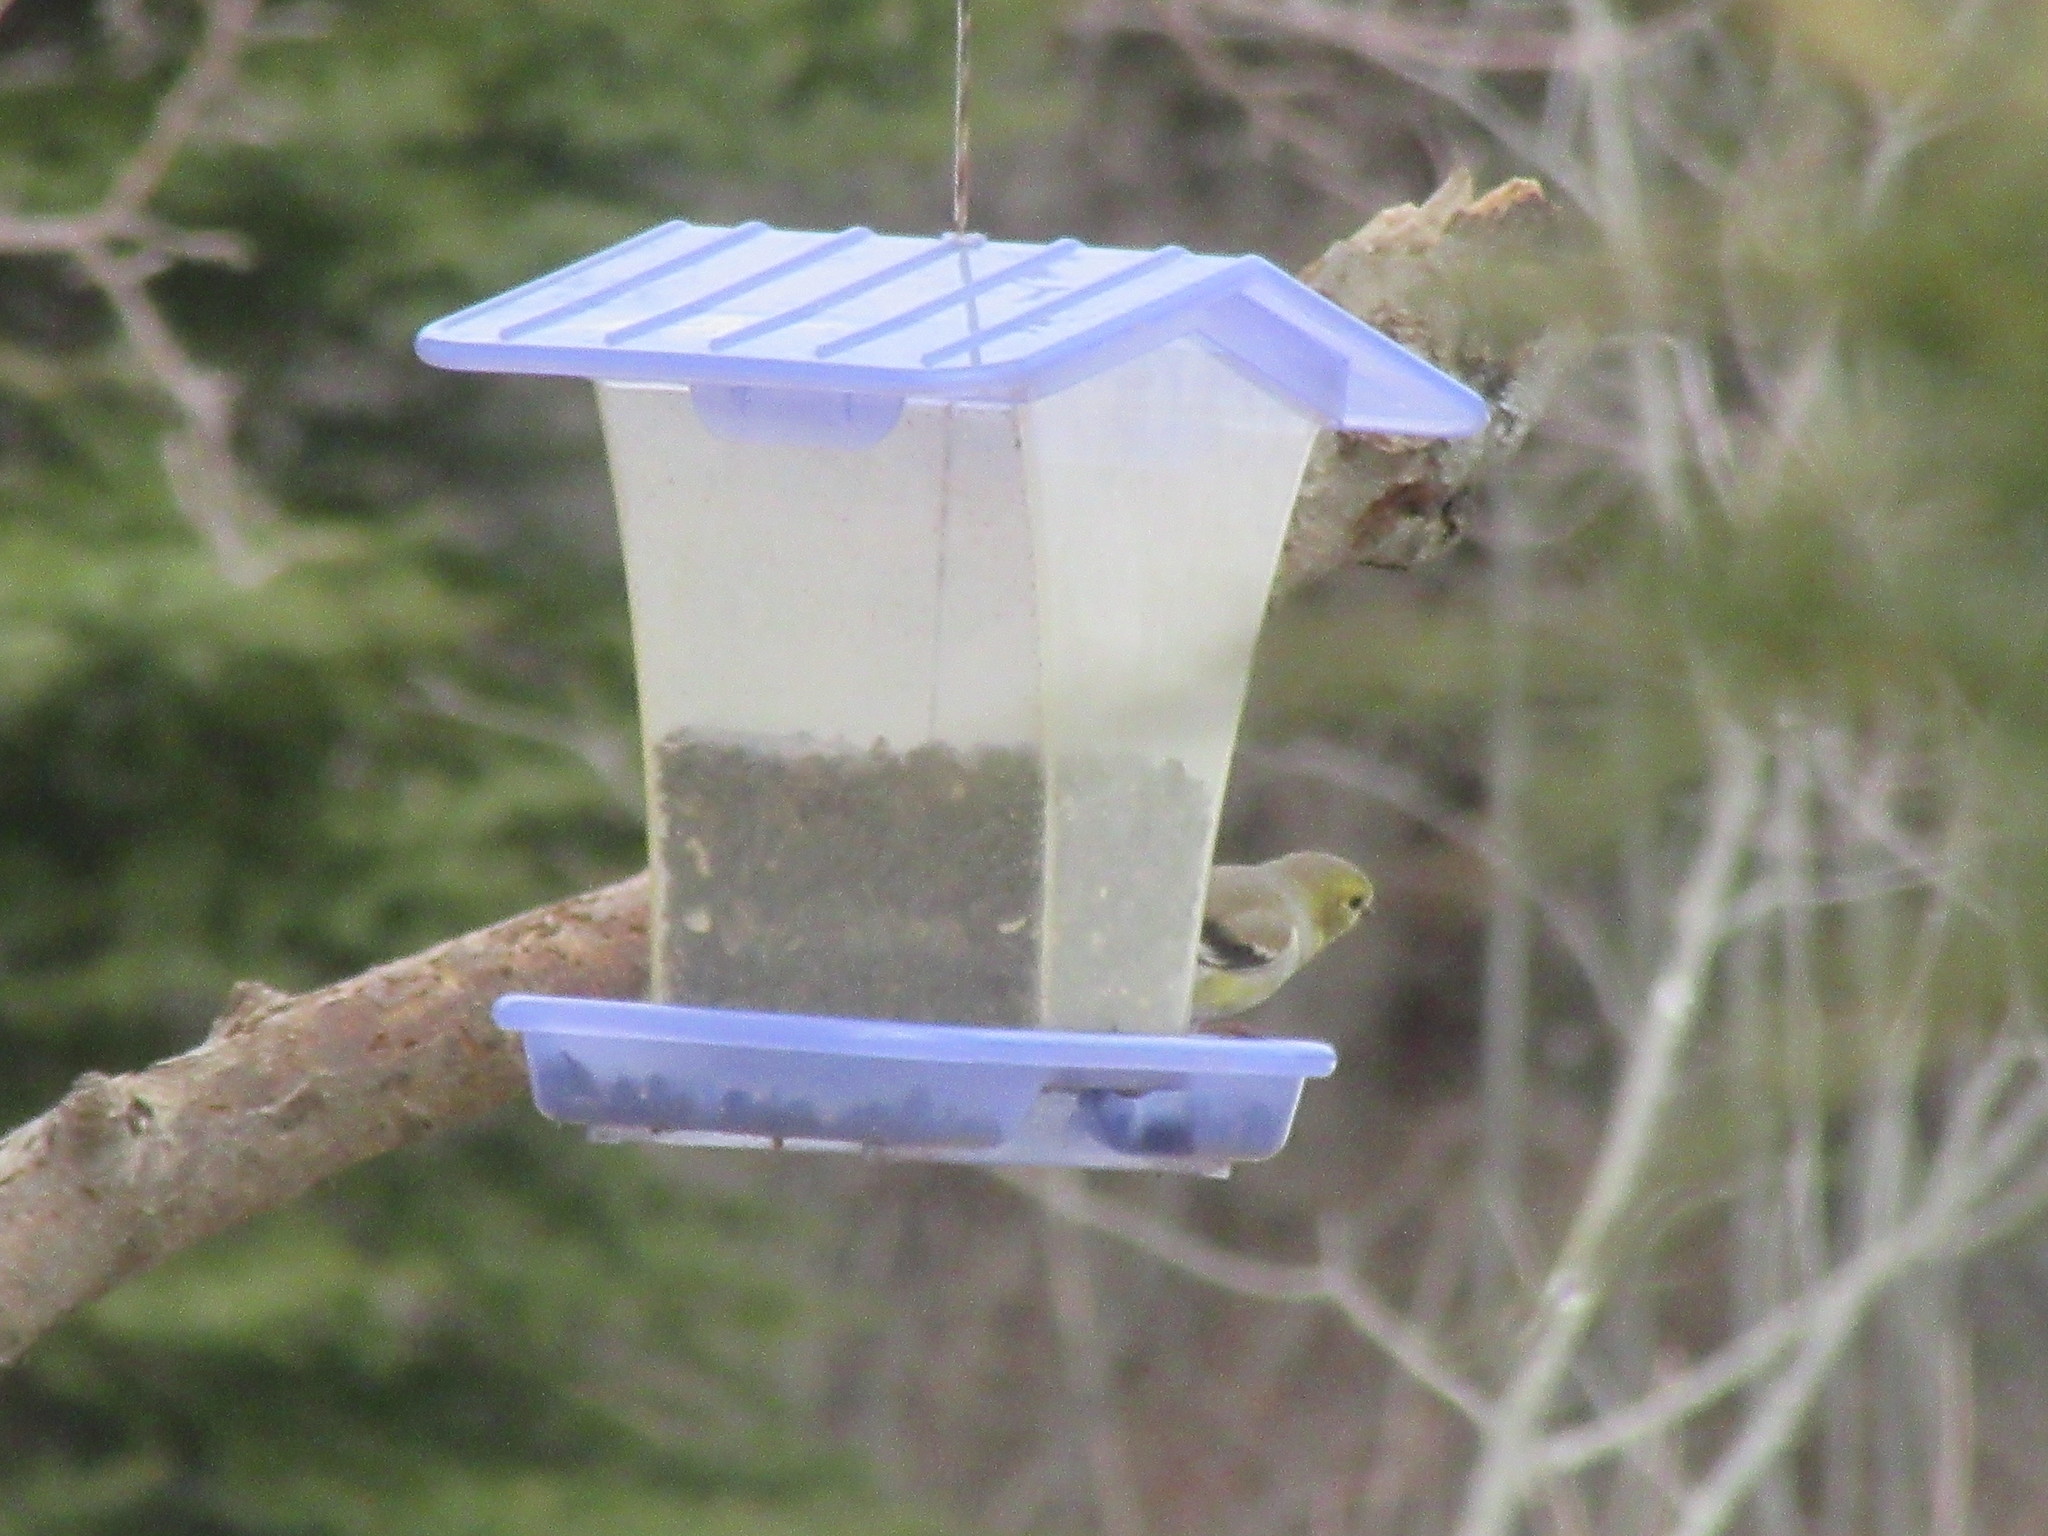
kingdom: Animalia
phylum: Chordata
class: Aves
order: Passeriformes
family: Fringillidae
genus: Spinus
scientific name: Spinus tristis
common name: American goldfinch
